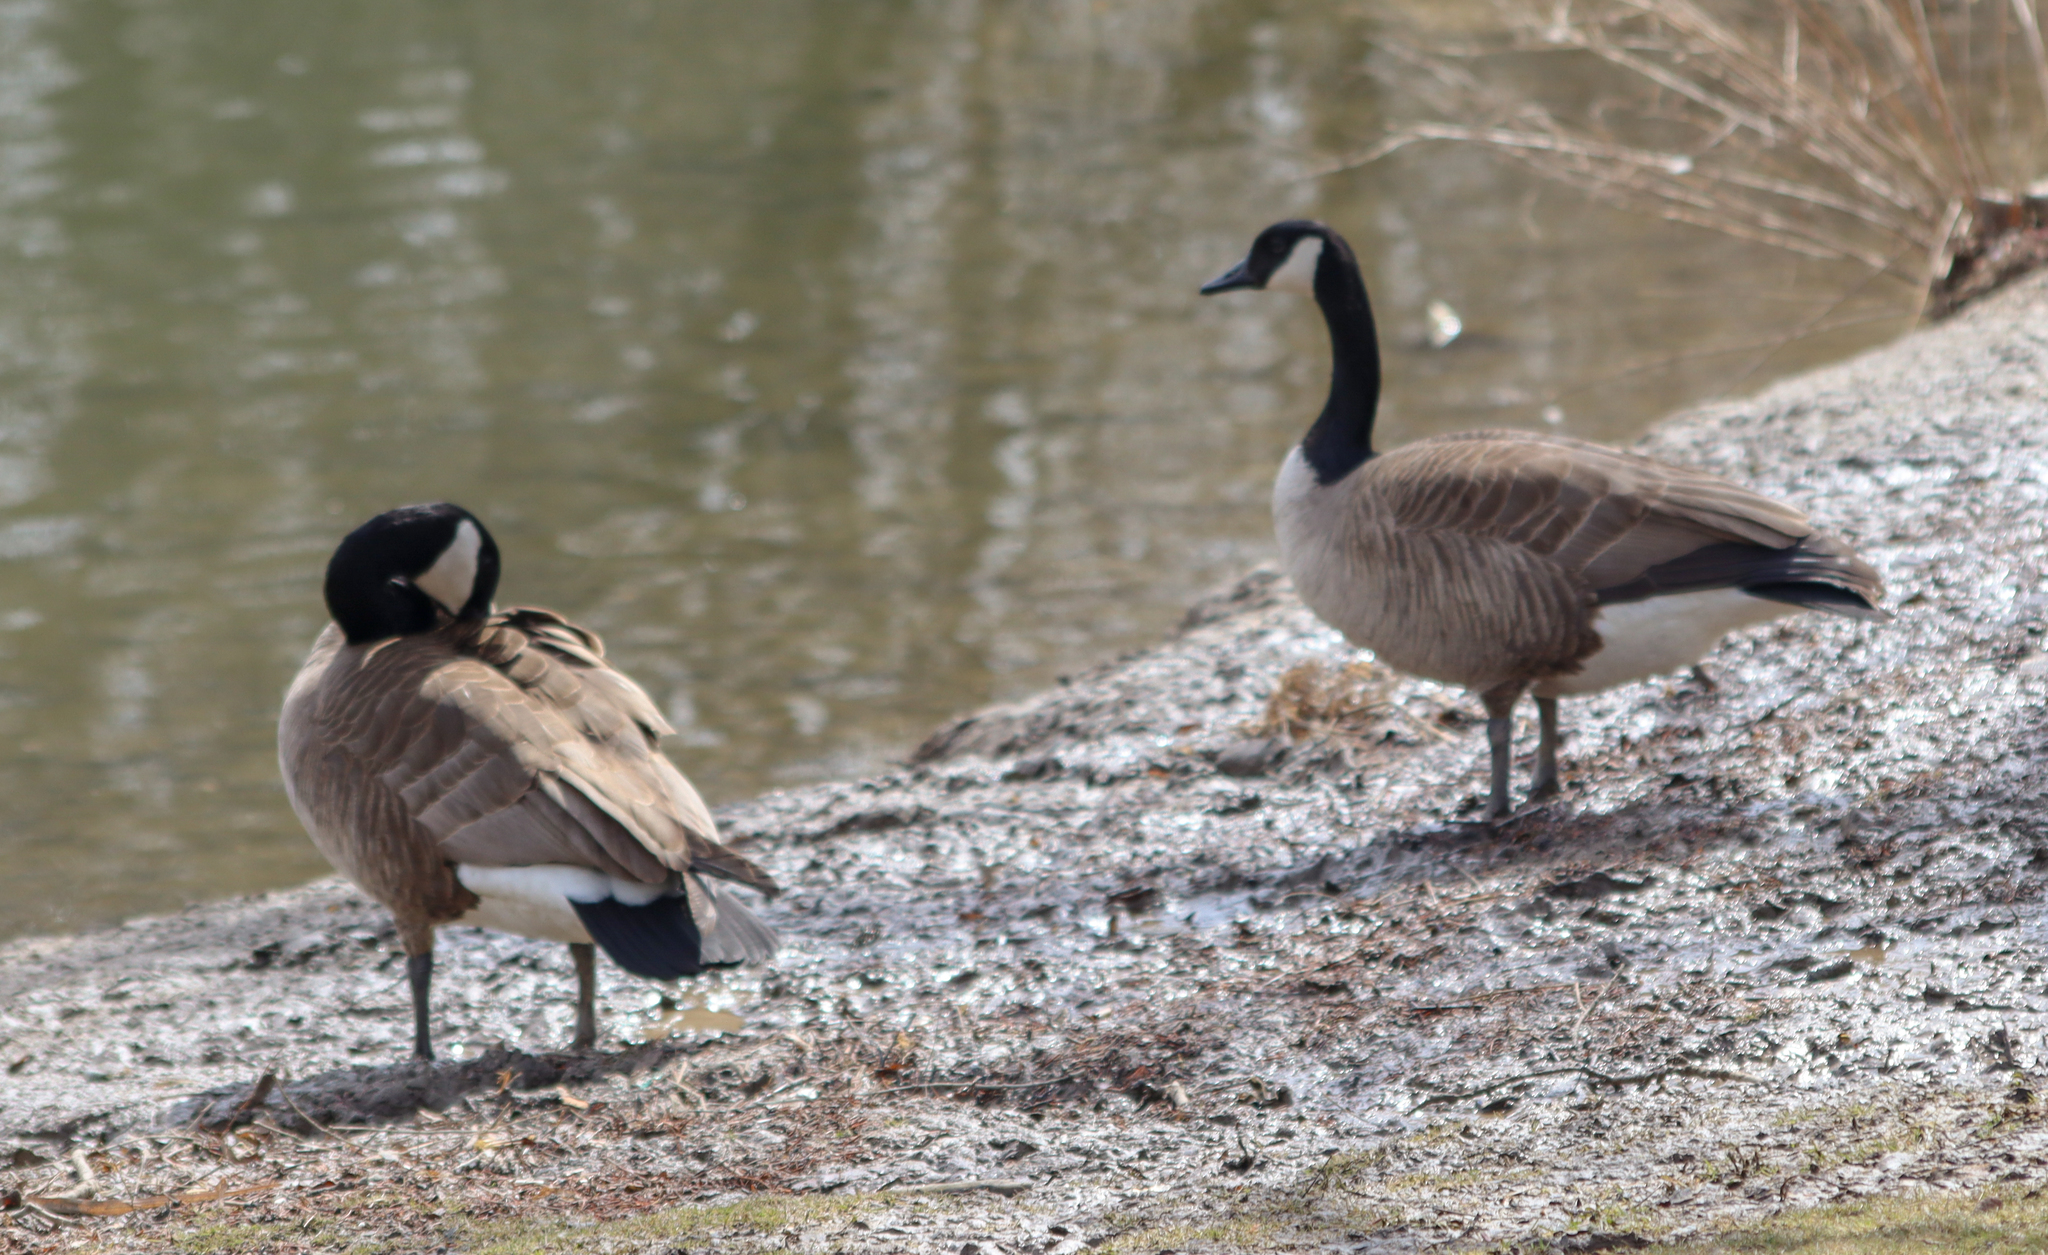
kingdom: Animalia
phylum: Chordata
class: Aves
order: Anseriformes
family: Anatidae
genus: Branta
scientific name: Branta canadensis
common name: Canada goose
